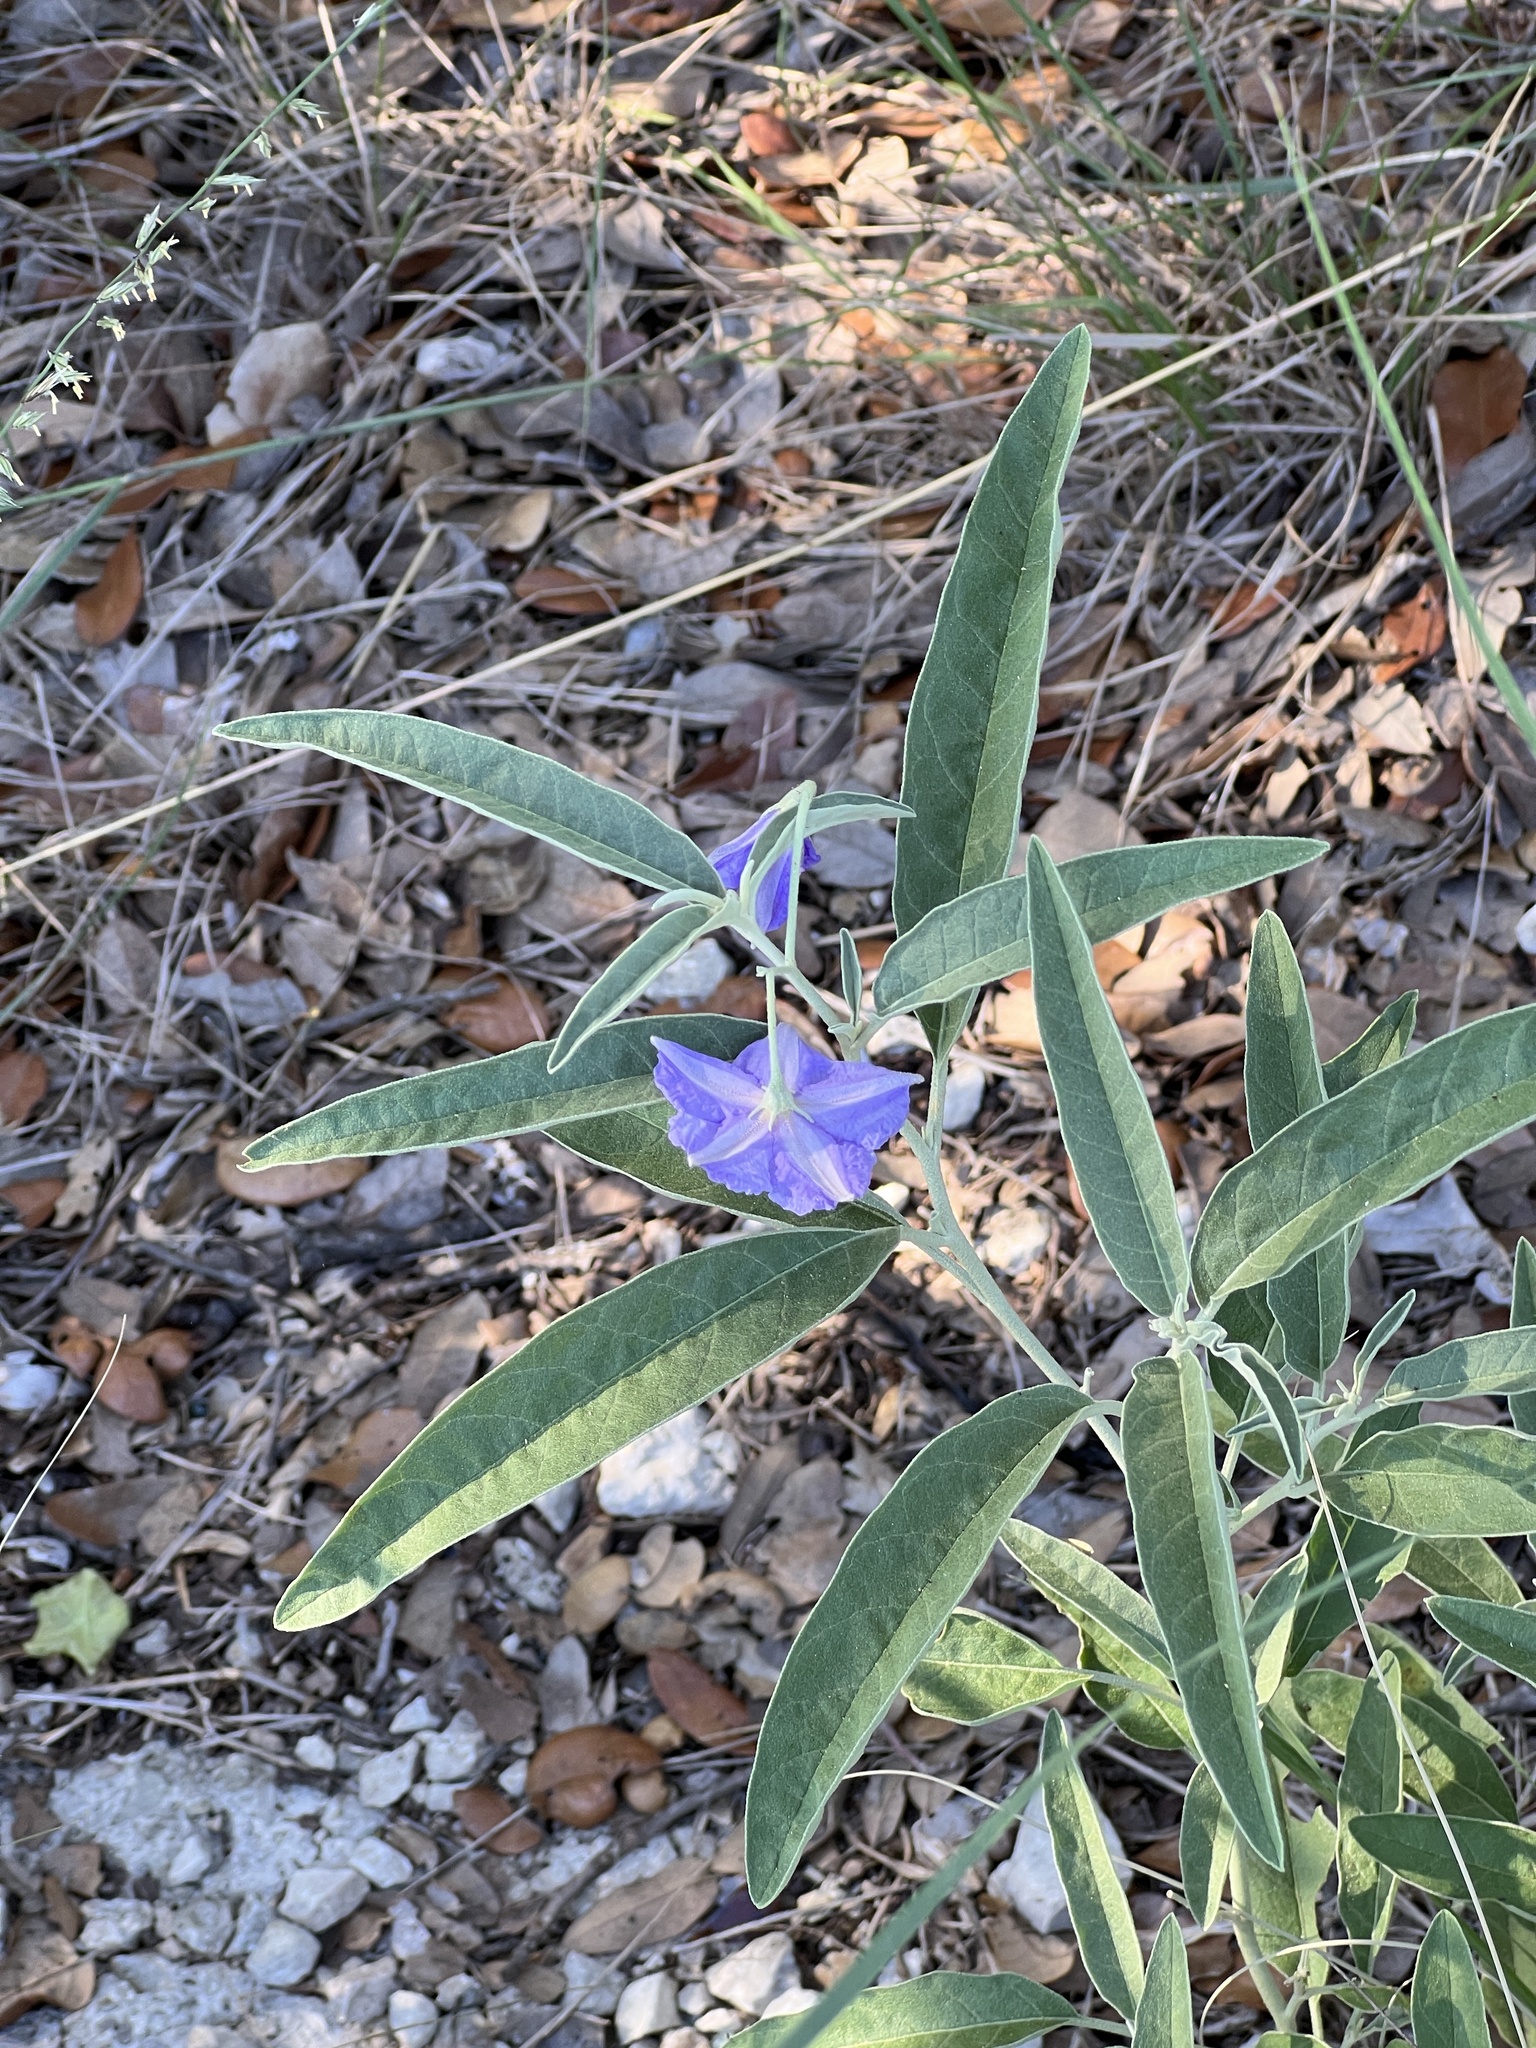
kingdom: Plantae
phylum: Tracheophyta
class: Magnoliopsida
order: Solanales
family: Solanaceae
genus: Solanum
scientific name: Solanum elaeagnifolium
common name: Silverleaf nightshade
